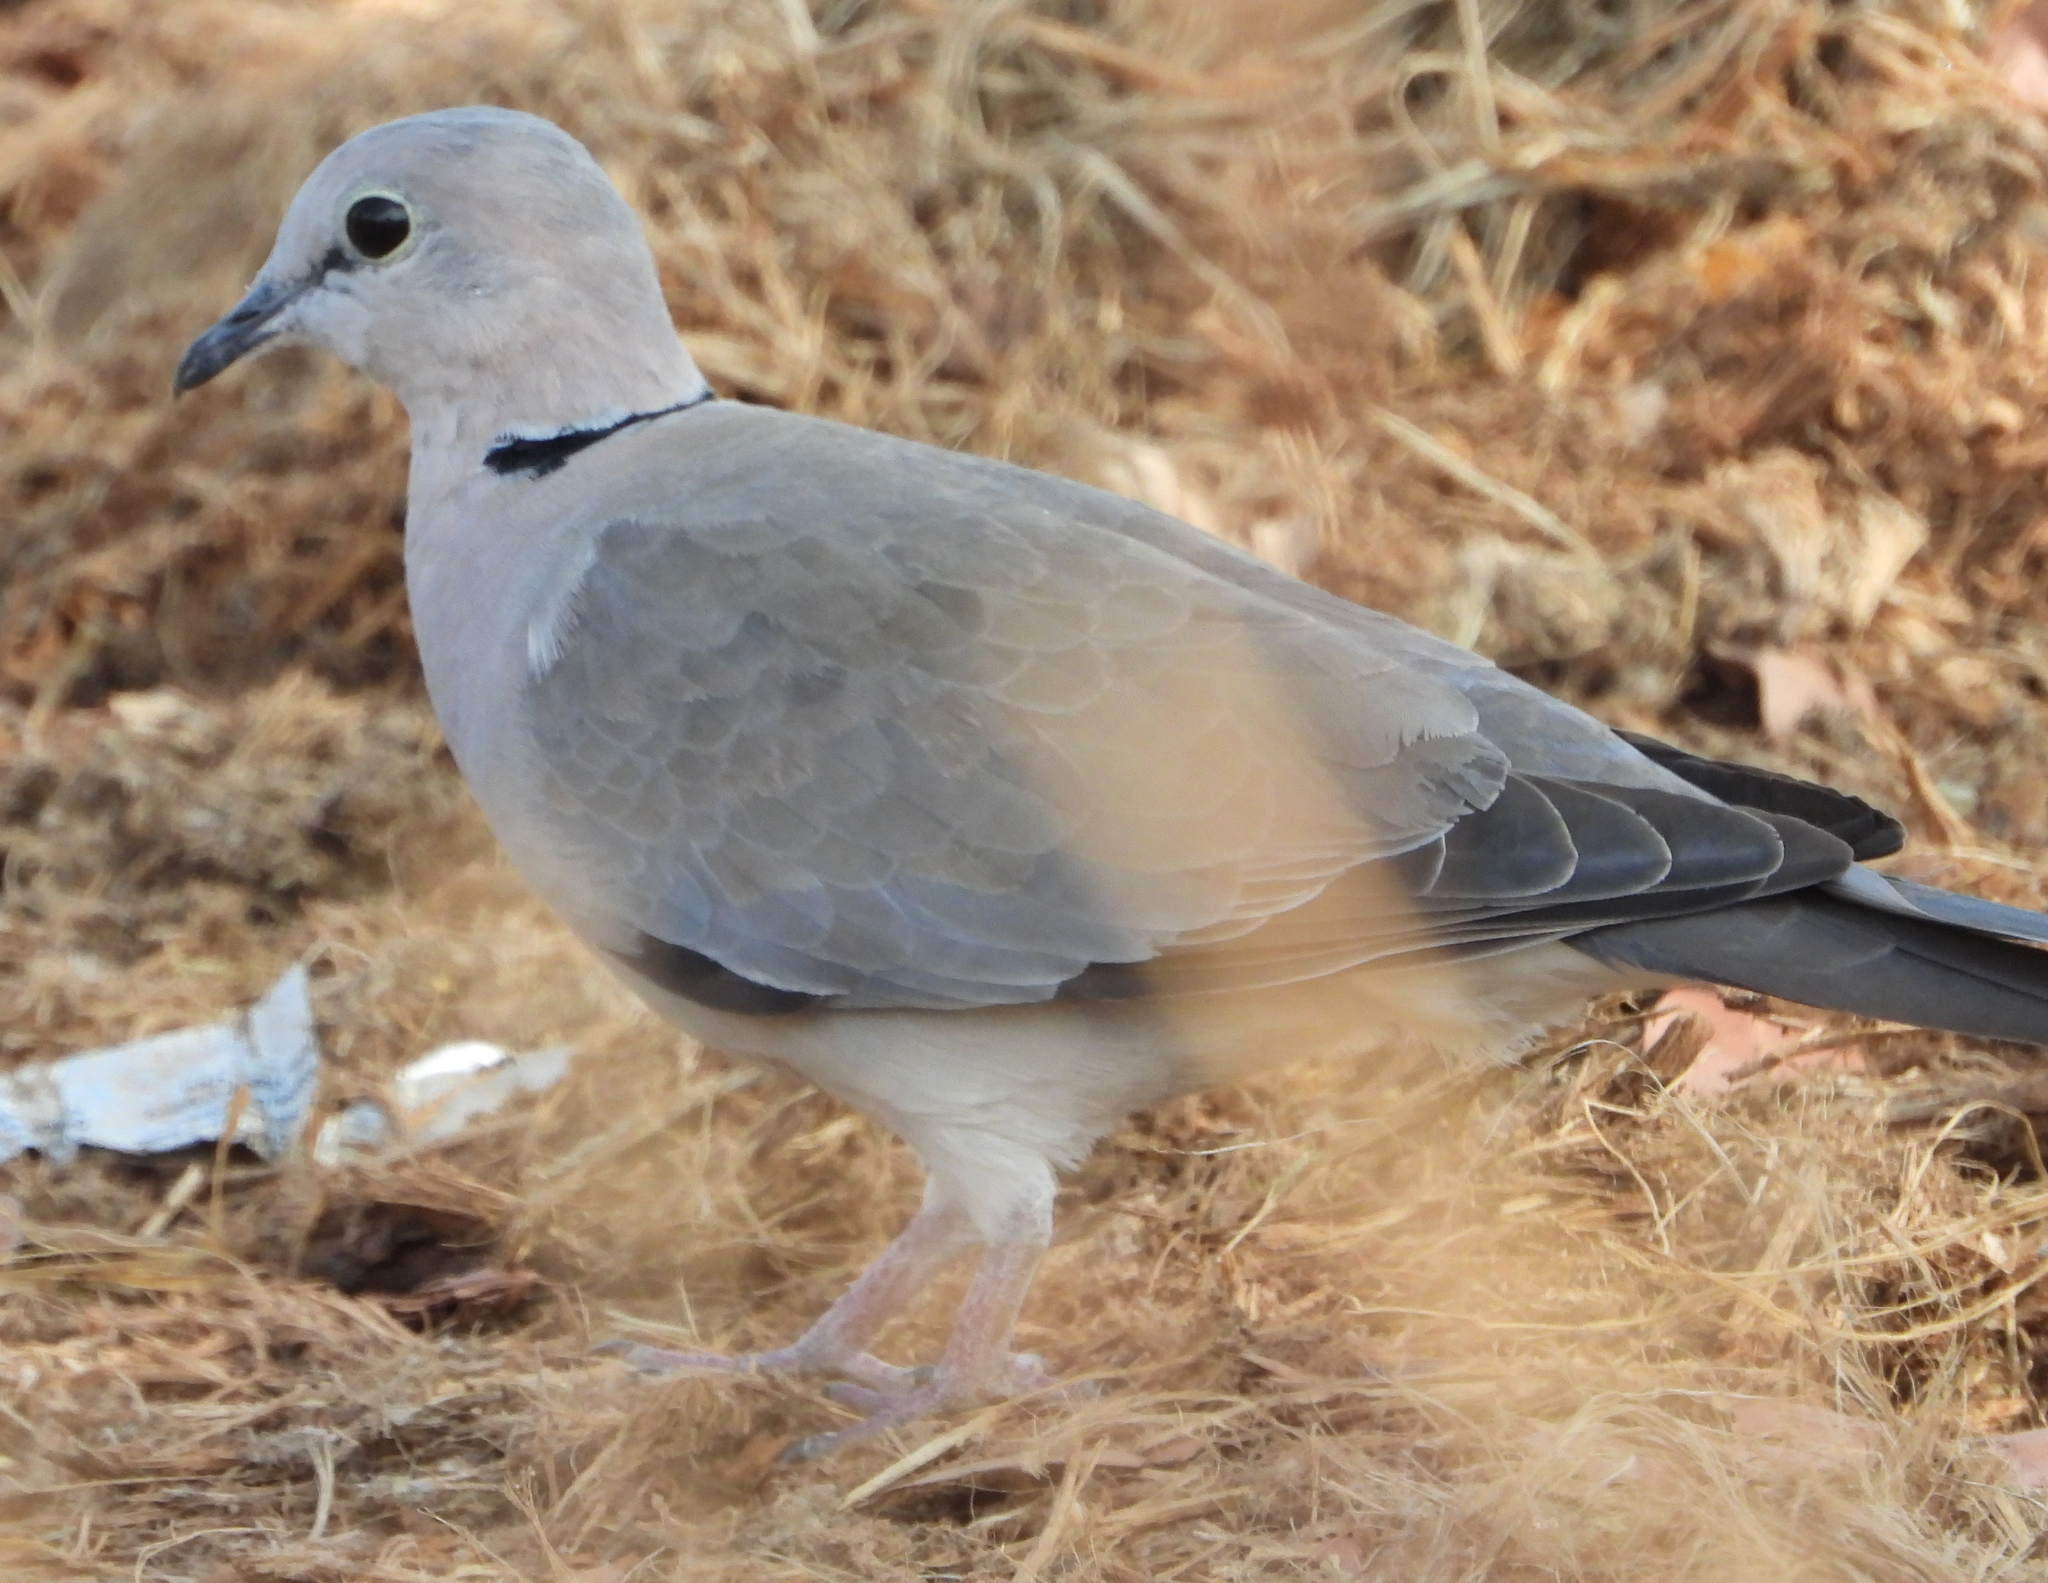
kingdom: Animalia
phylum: Chordata
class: Aves
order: Columbiformes
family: Columbidae
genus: Streptopelia
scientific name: Streptopelia capicola
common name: Ring-necked dove
